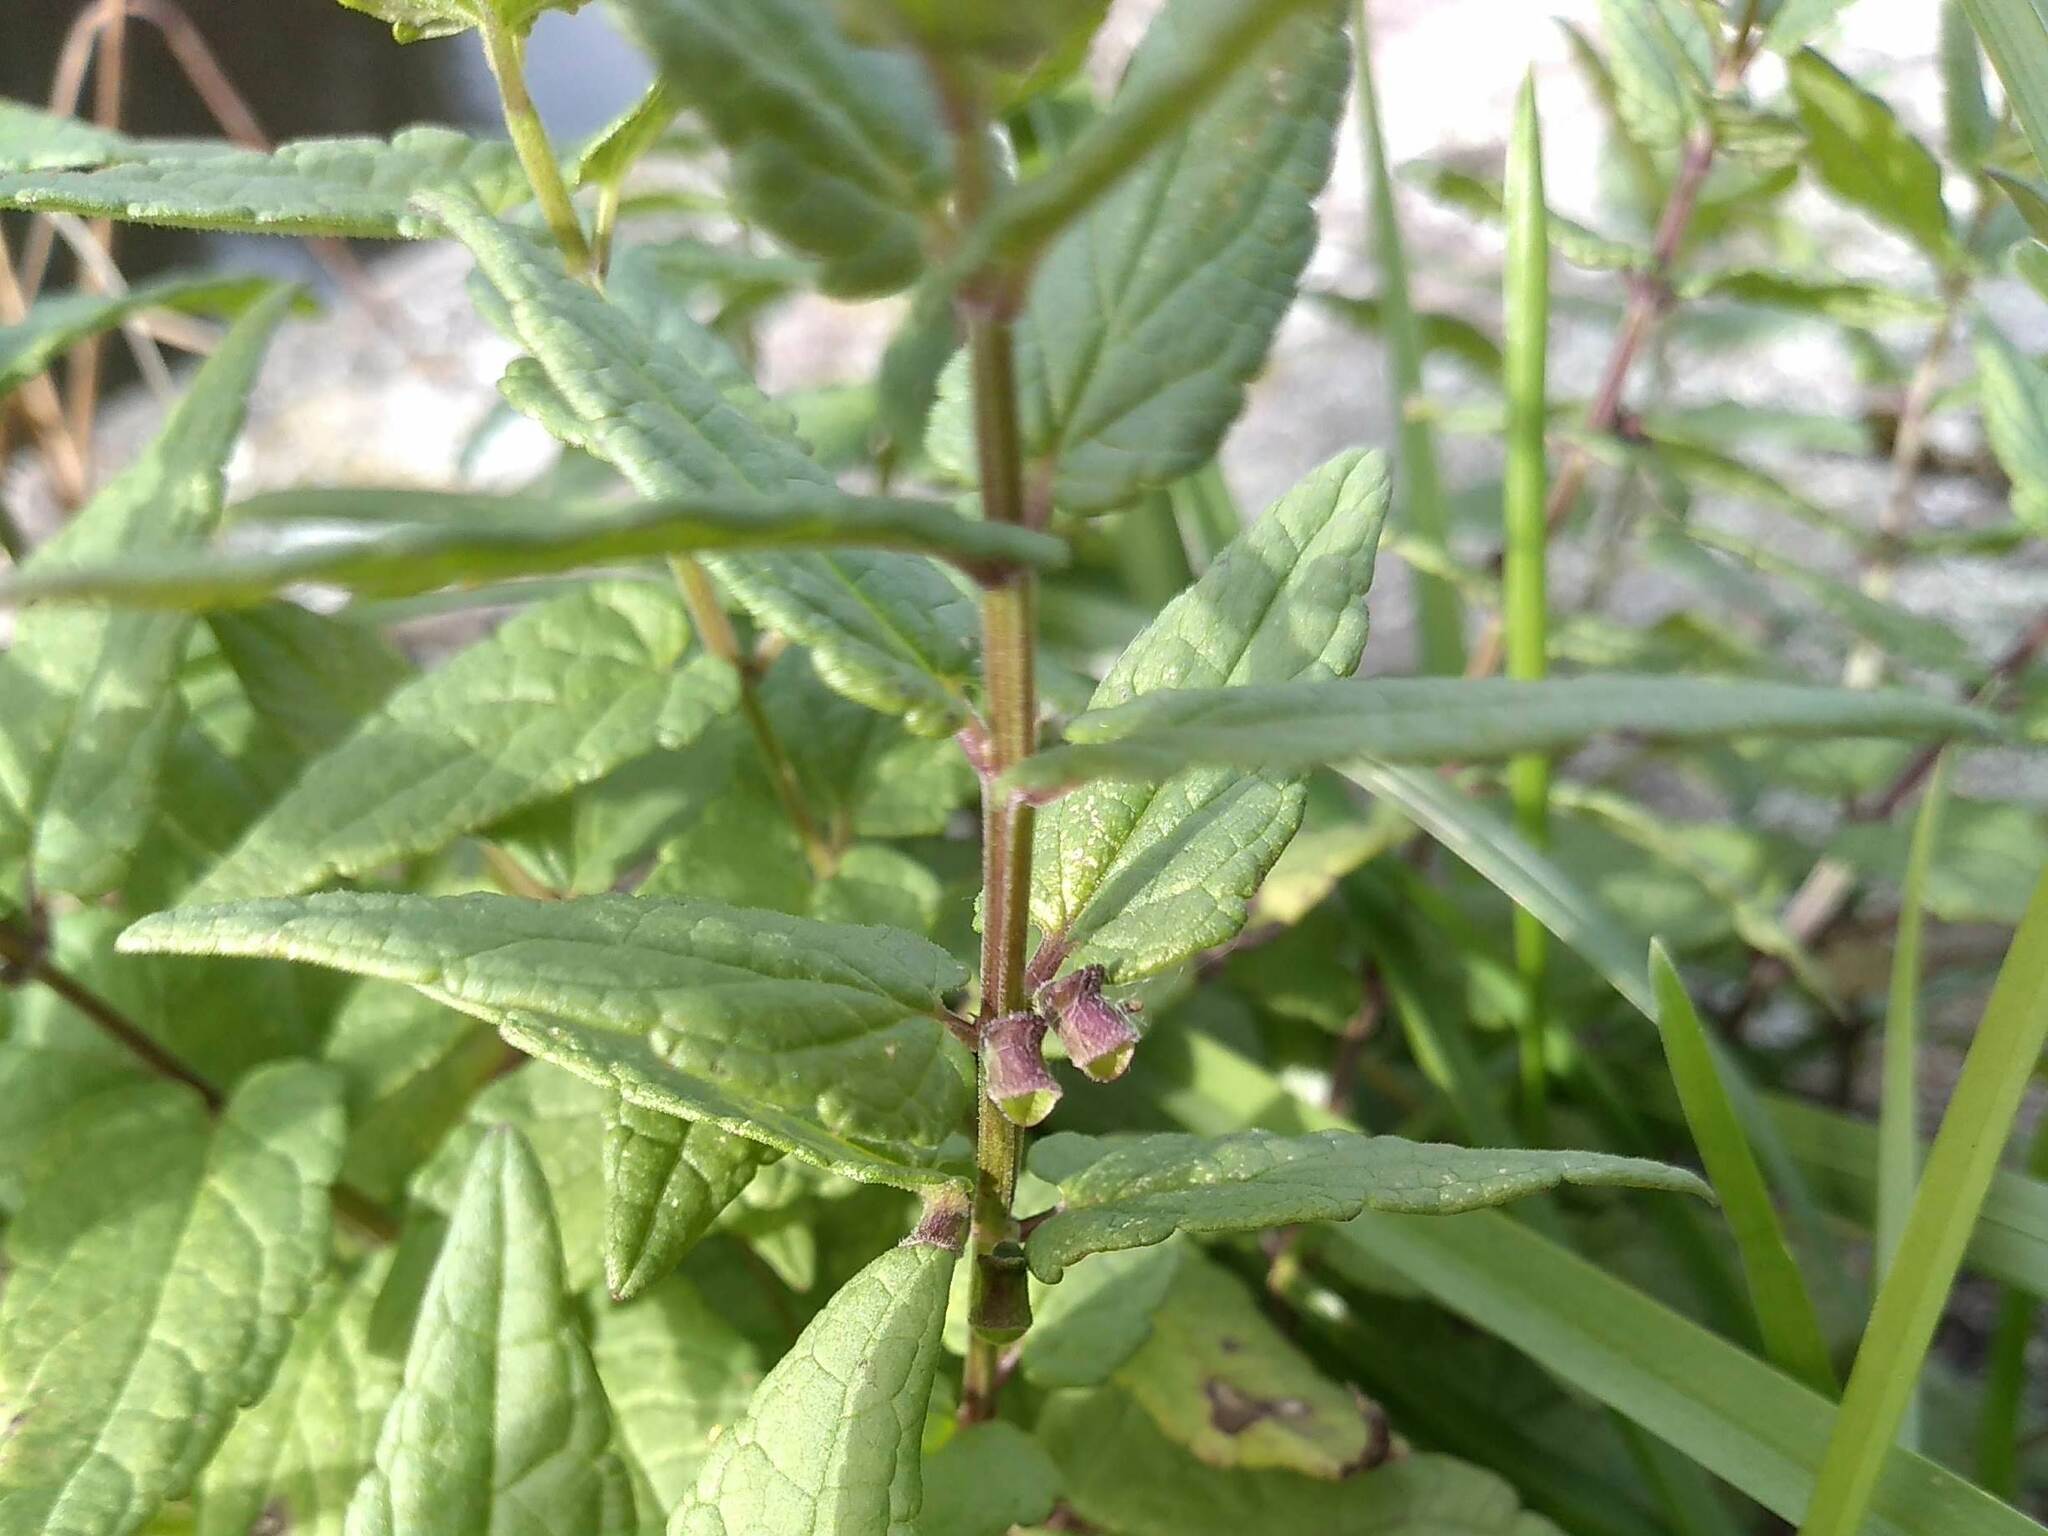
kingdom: Plantae
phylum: Tracheophyta
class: Magnoliopsida
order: Lamiales
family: Lamiaceae
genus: Scutellaria
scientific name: Scutellaria galericulata
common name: Skullcap
